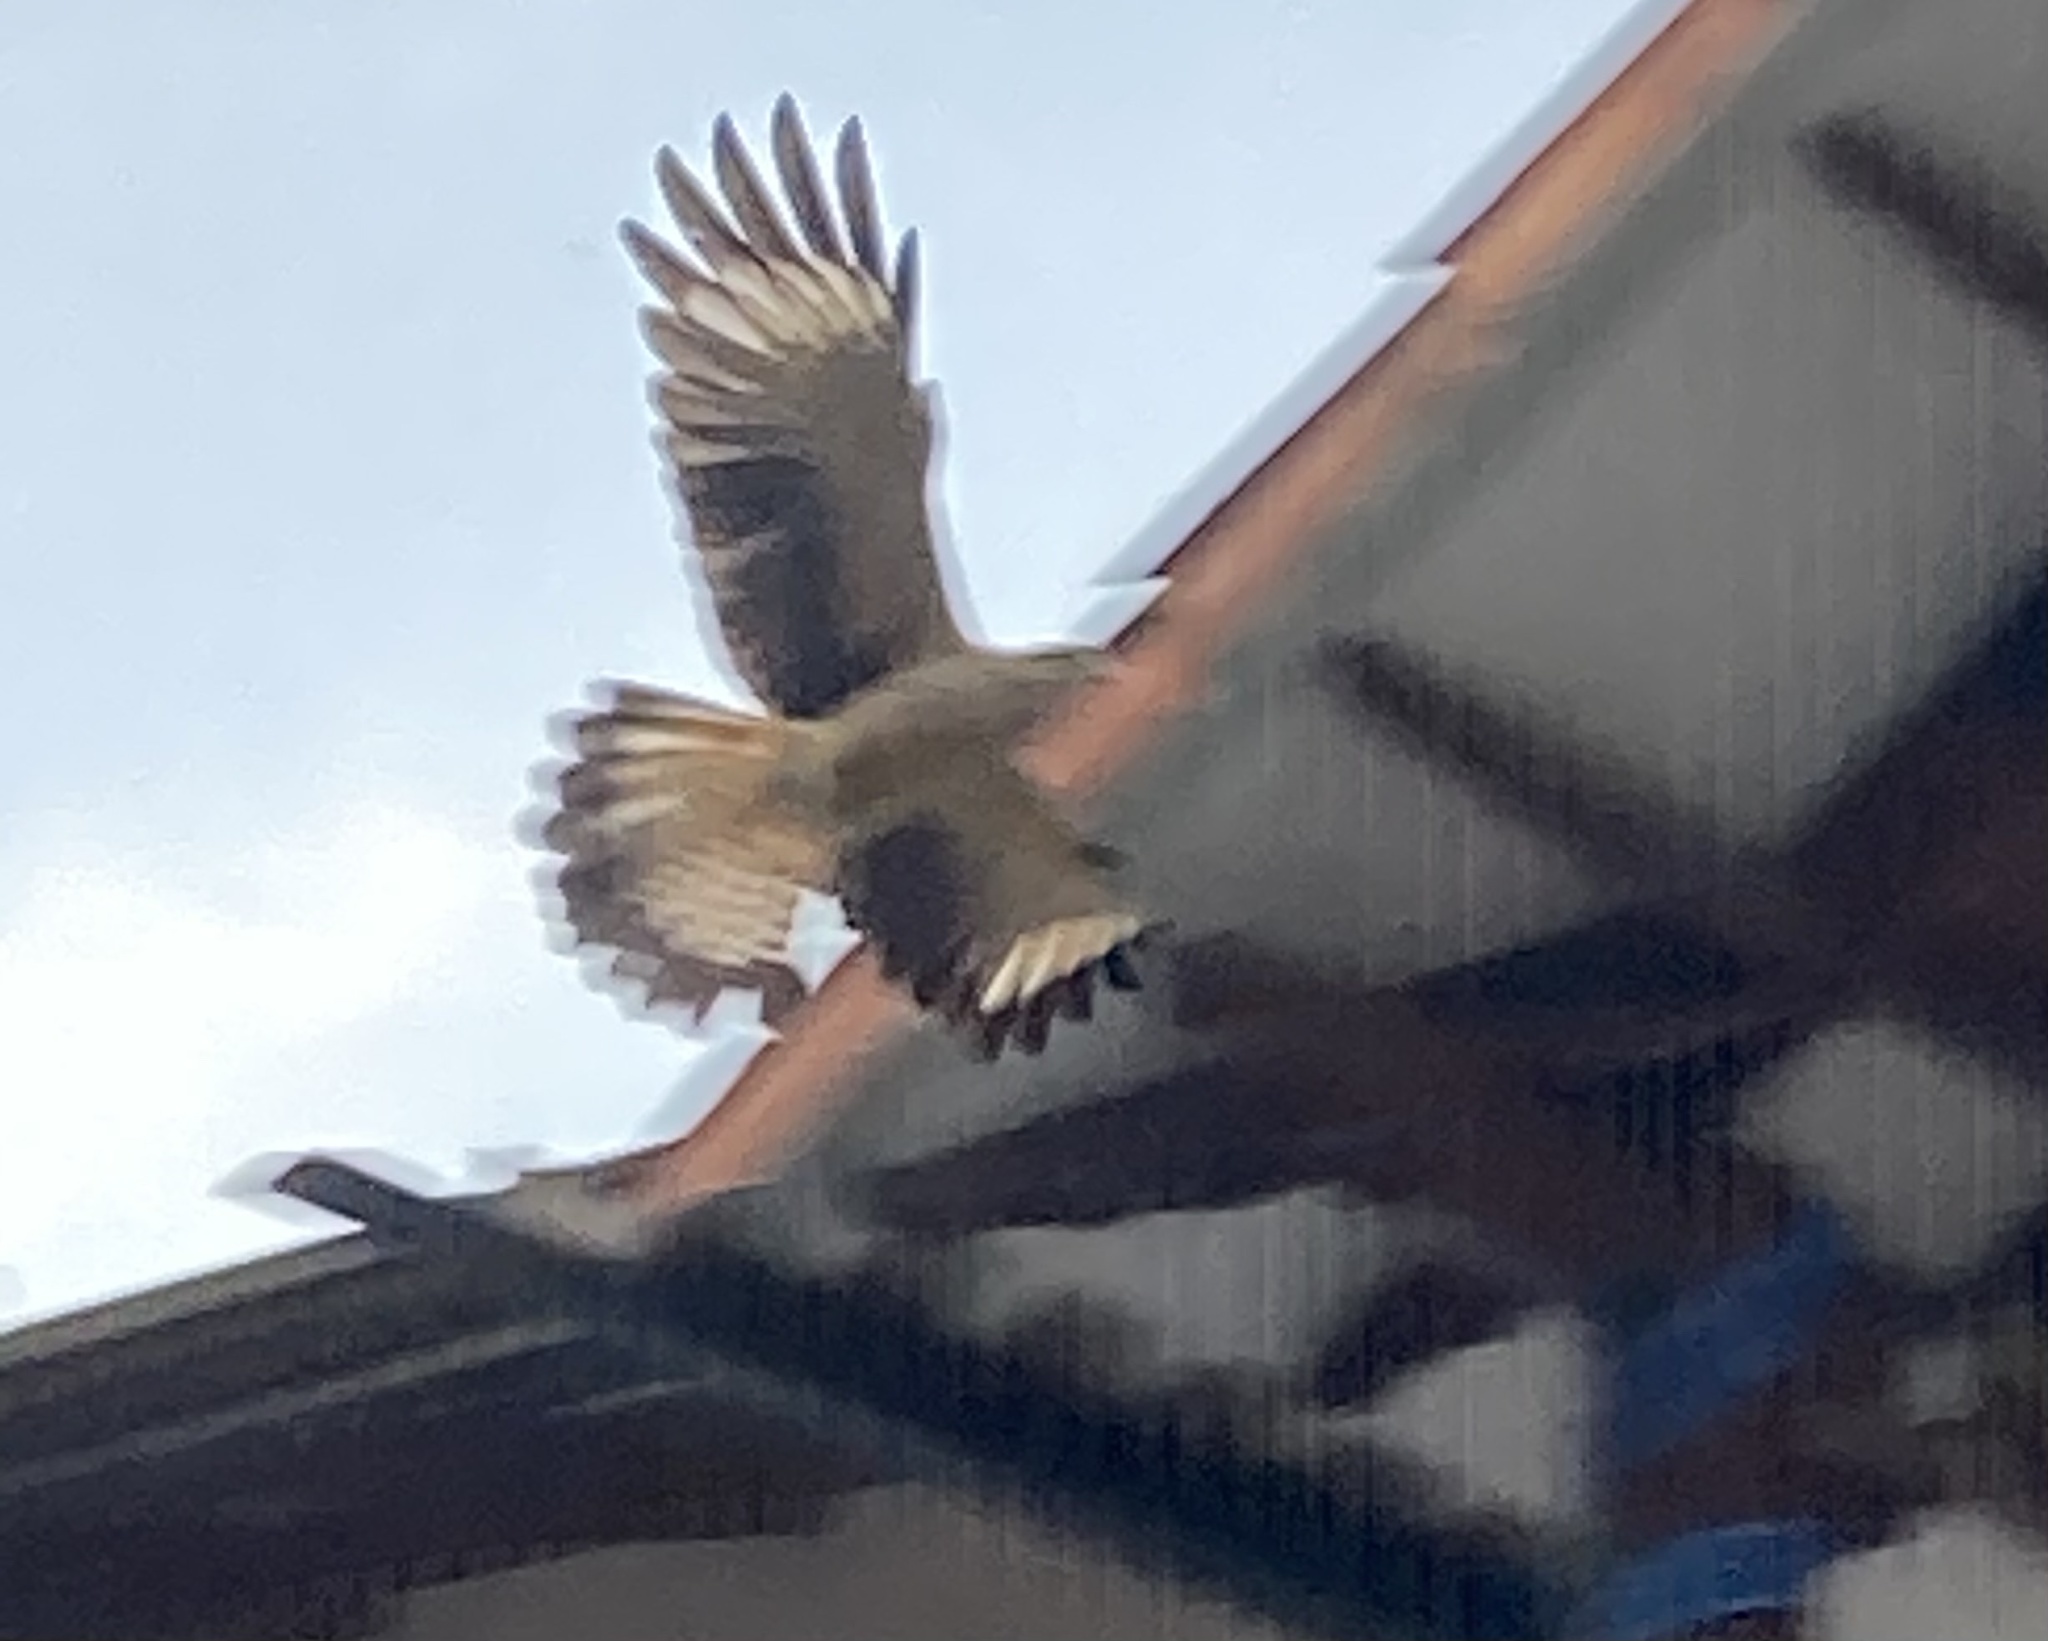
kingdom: Animalia
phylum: Chordata
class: Aves
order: Falconiformes
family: Falconidae
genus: Daptrius
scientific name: Daptrius
